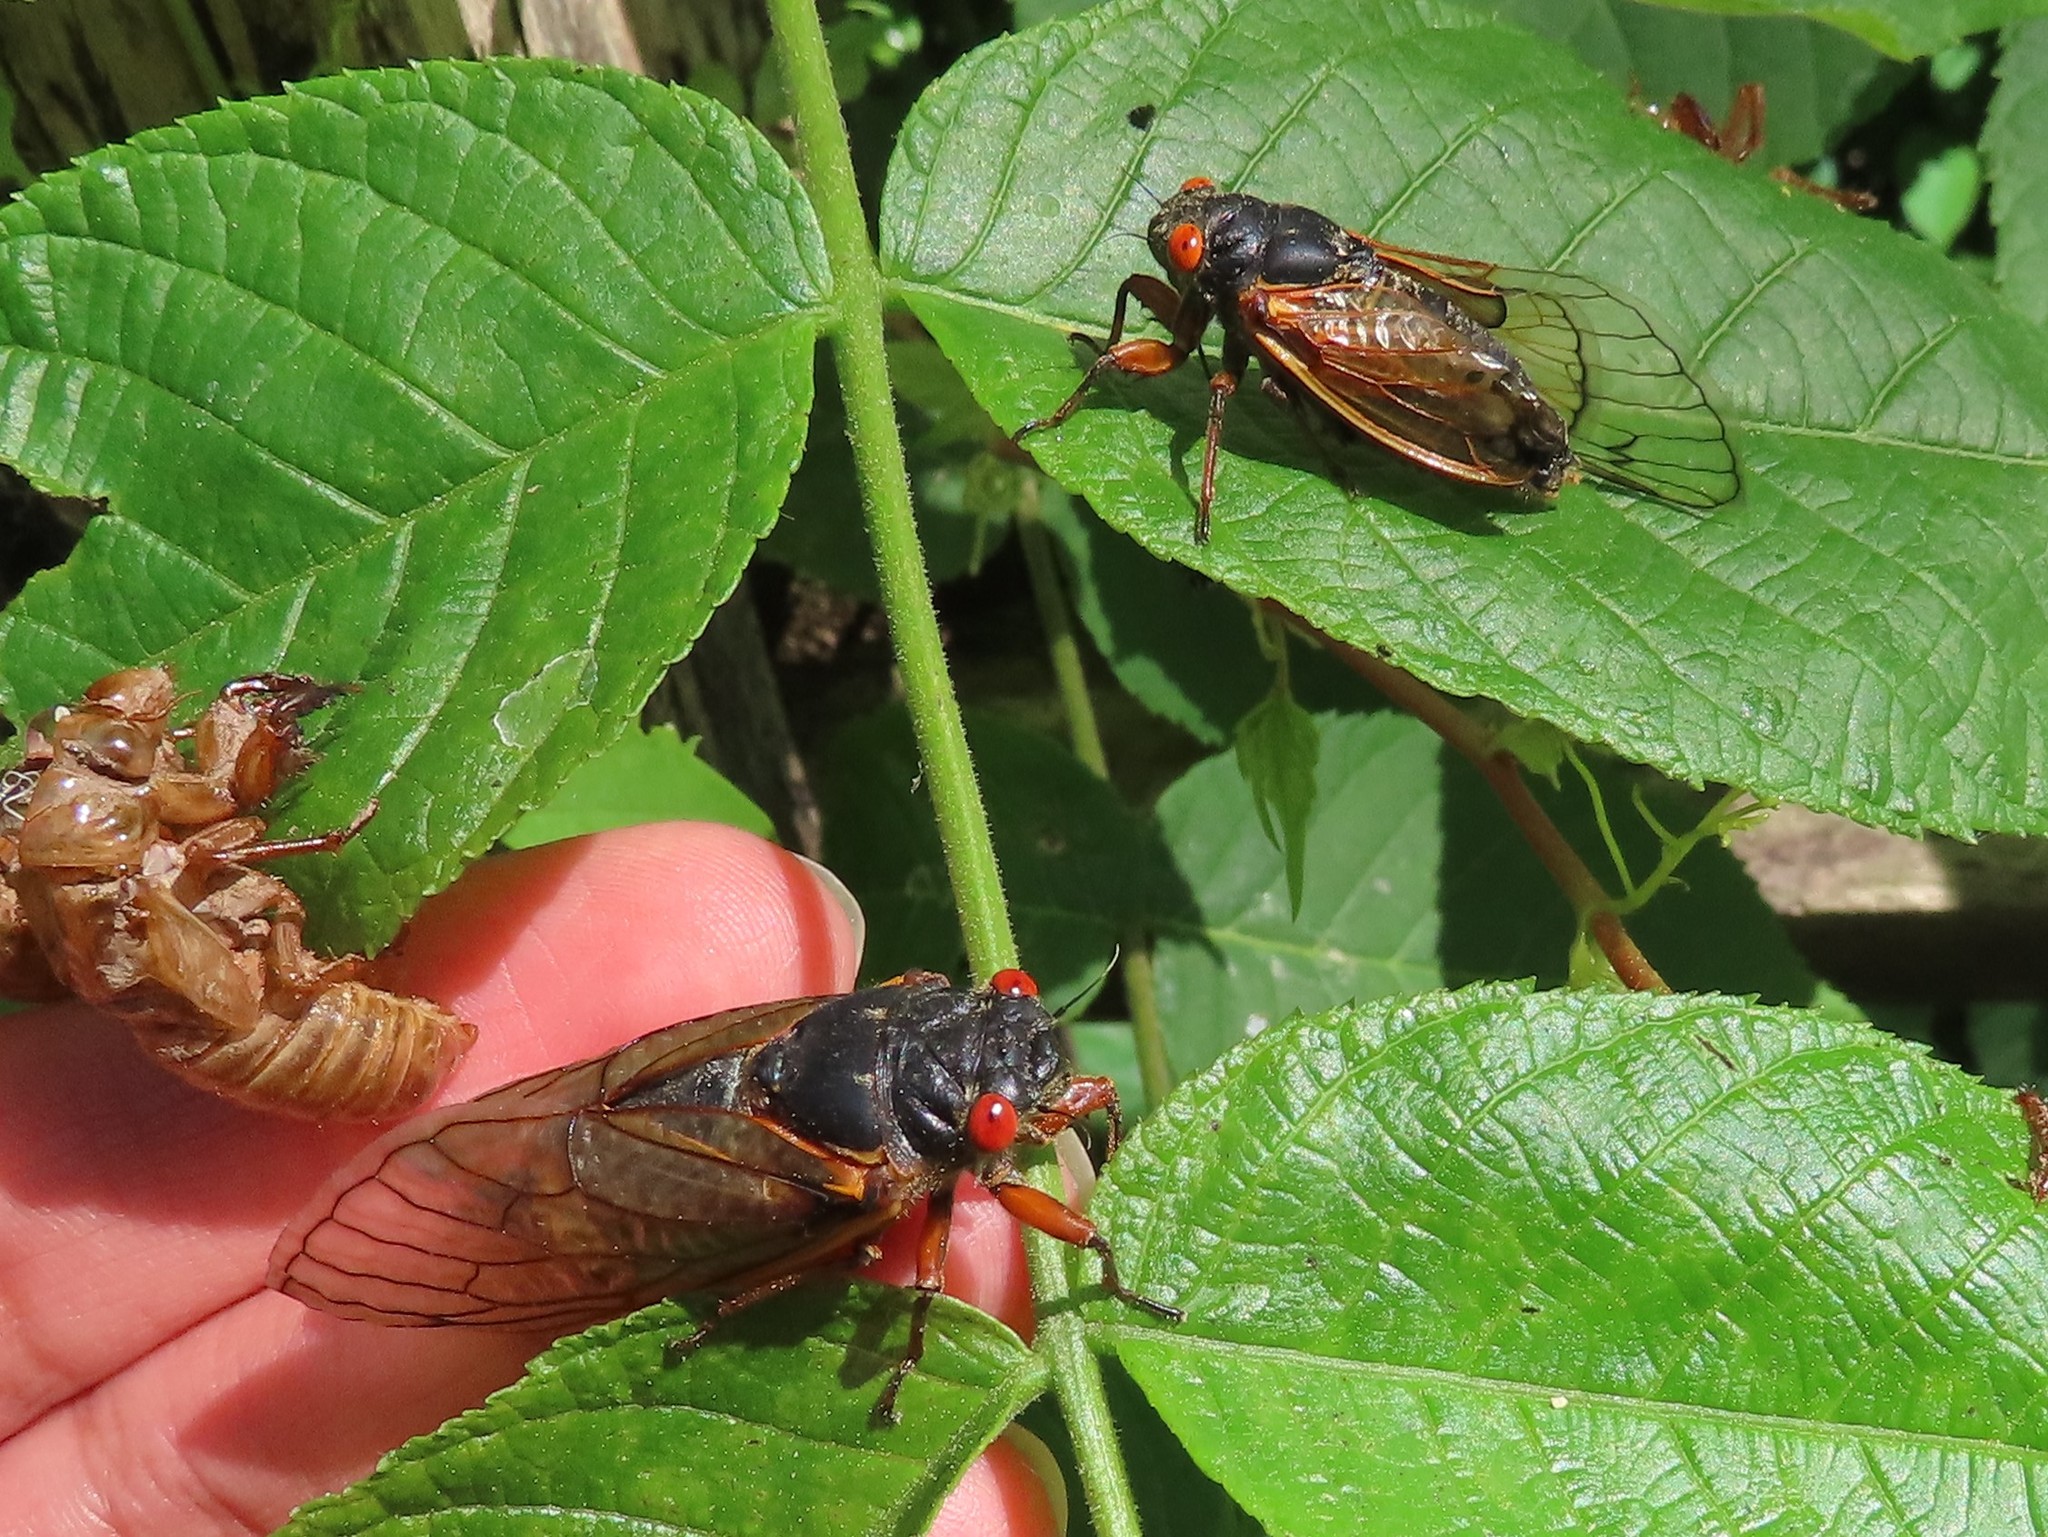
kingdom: Animalia
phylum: Arthropoda
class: Insecta
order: Hemiptera
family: Cicadidae
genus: Magicicada
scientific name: Magicicada
